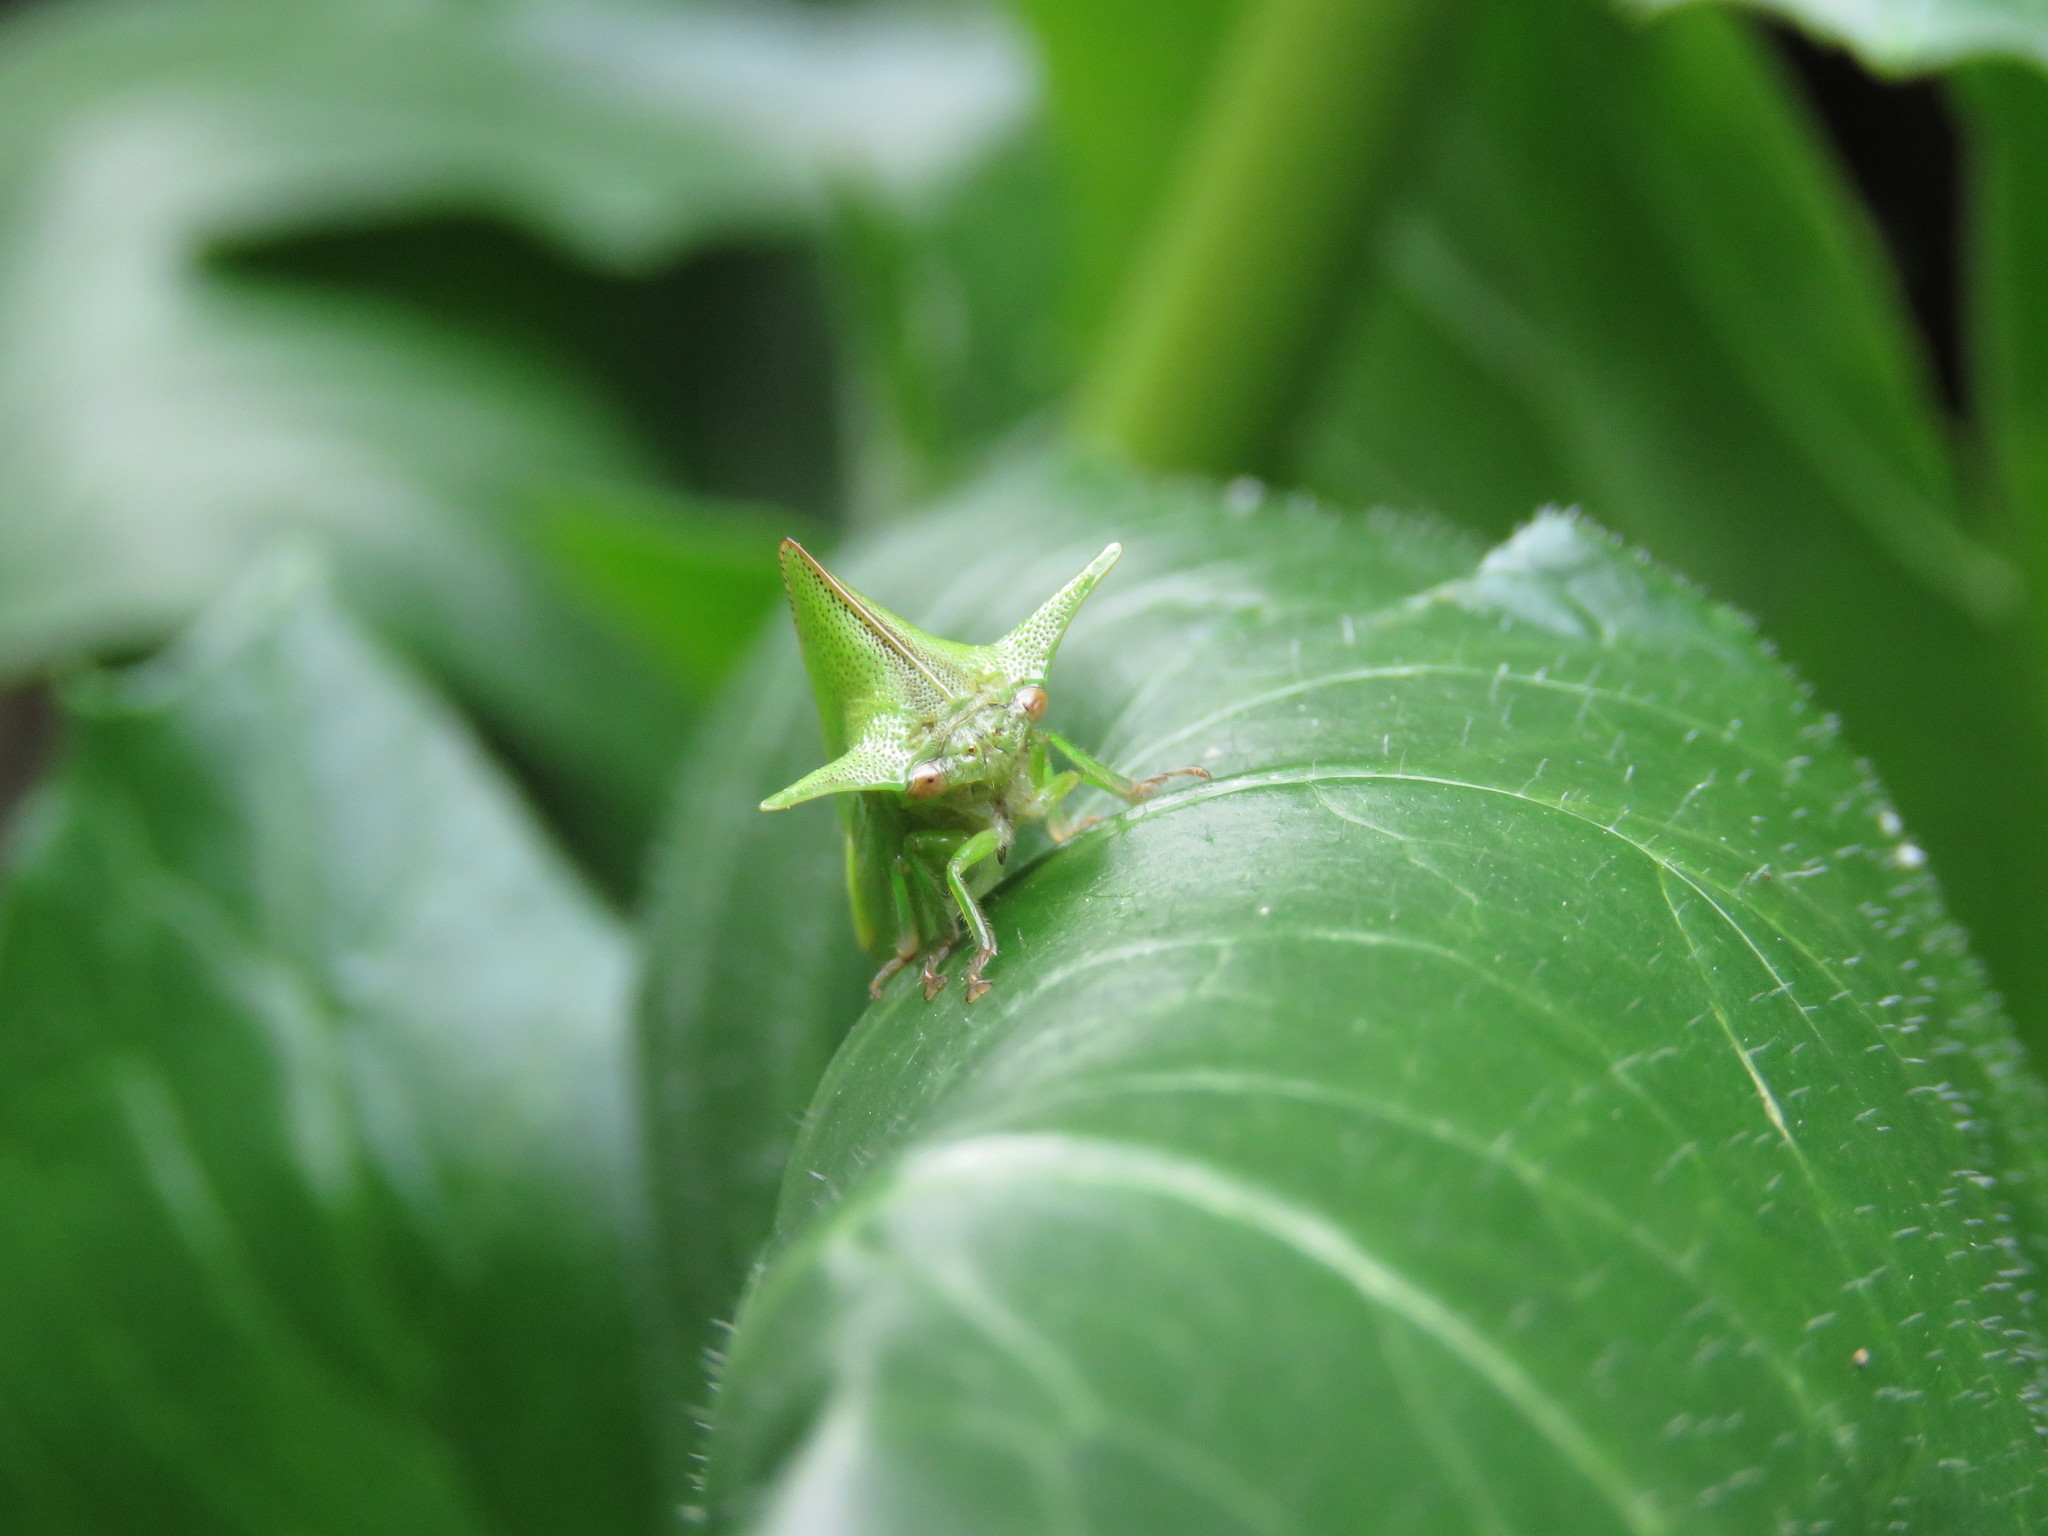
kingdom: Animalia
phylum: Arthropoda
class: Insecta
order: Hemiptera
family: Membracidae
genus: Alchisme
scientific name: Alchisme grossa
